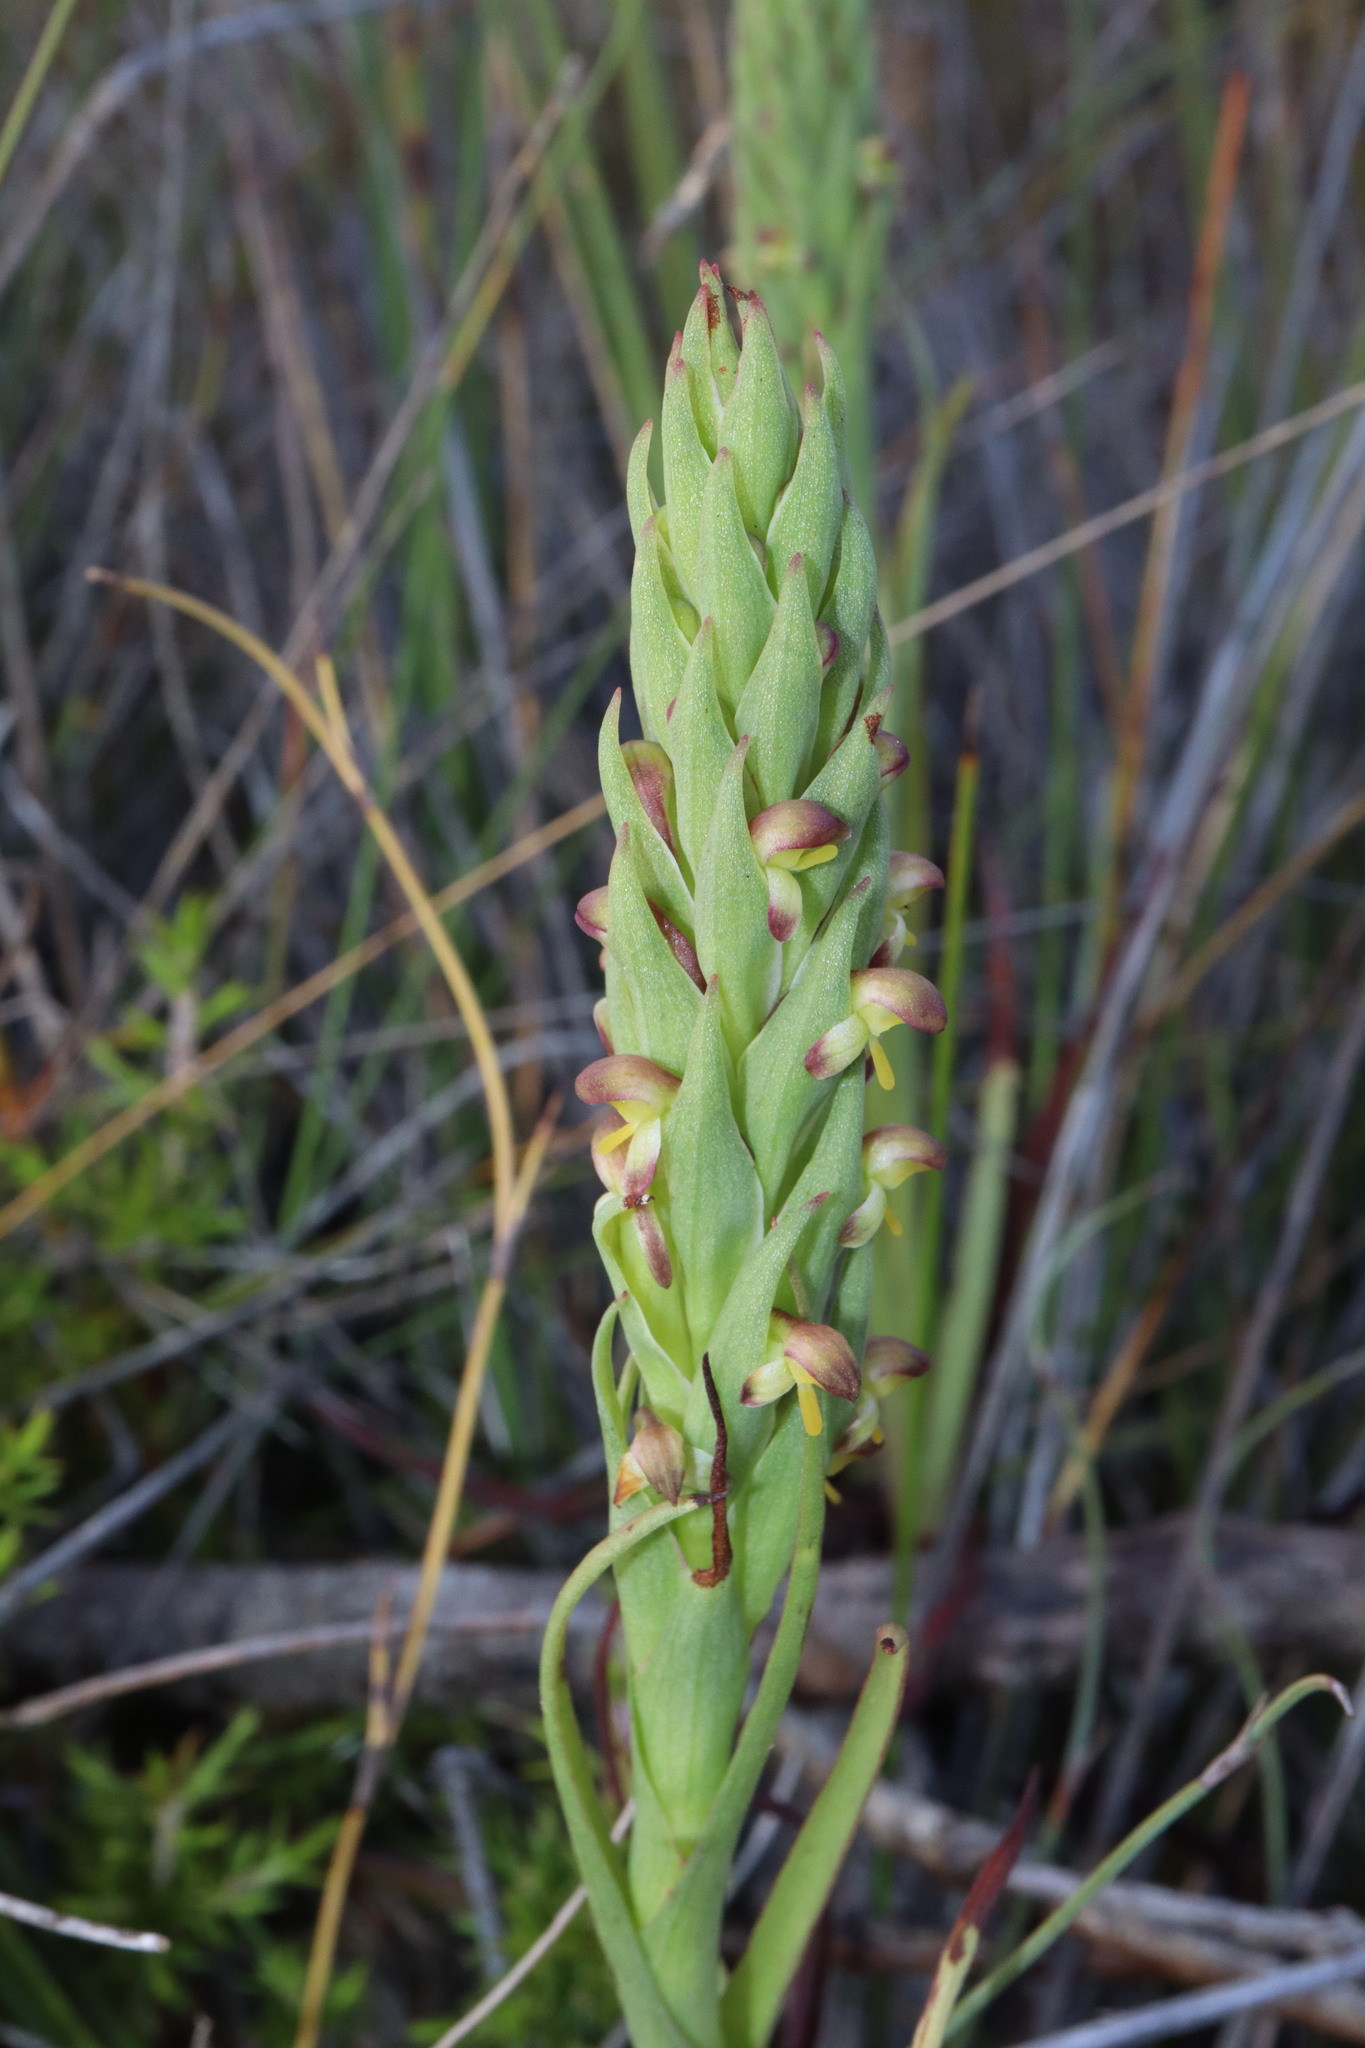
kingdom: Plantae
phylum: Tracheophyta
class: Liliopsida
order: Asparagales
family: Orchidaceae
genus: Disa
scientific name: Disa bracteata
